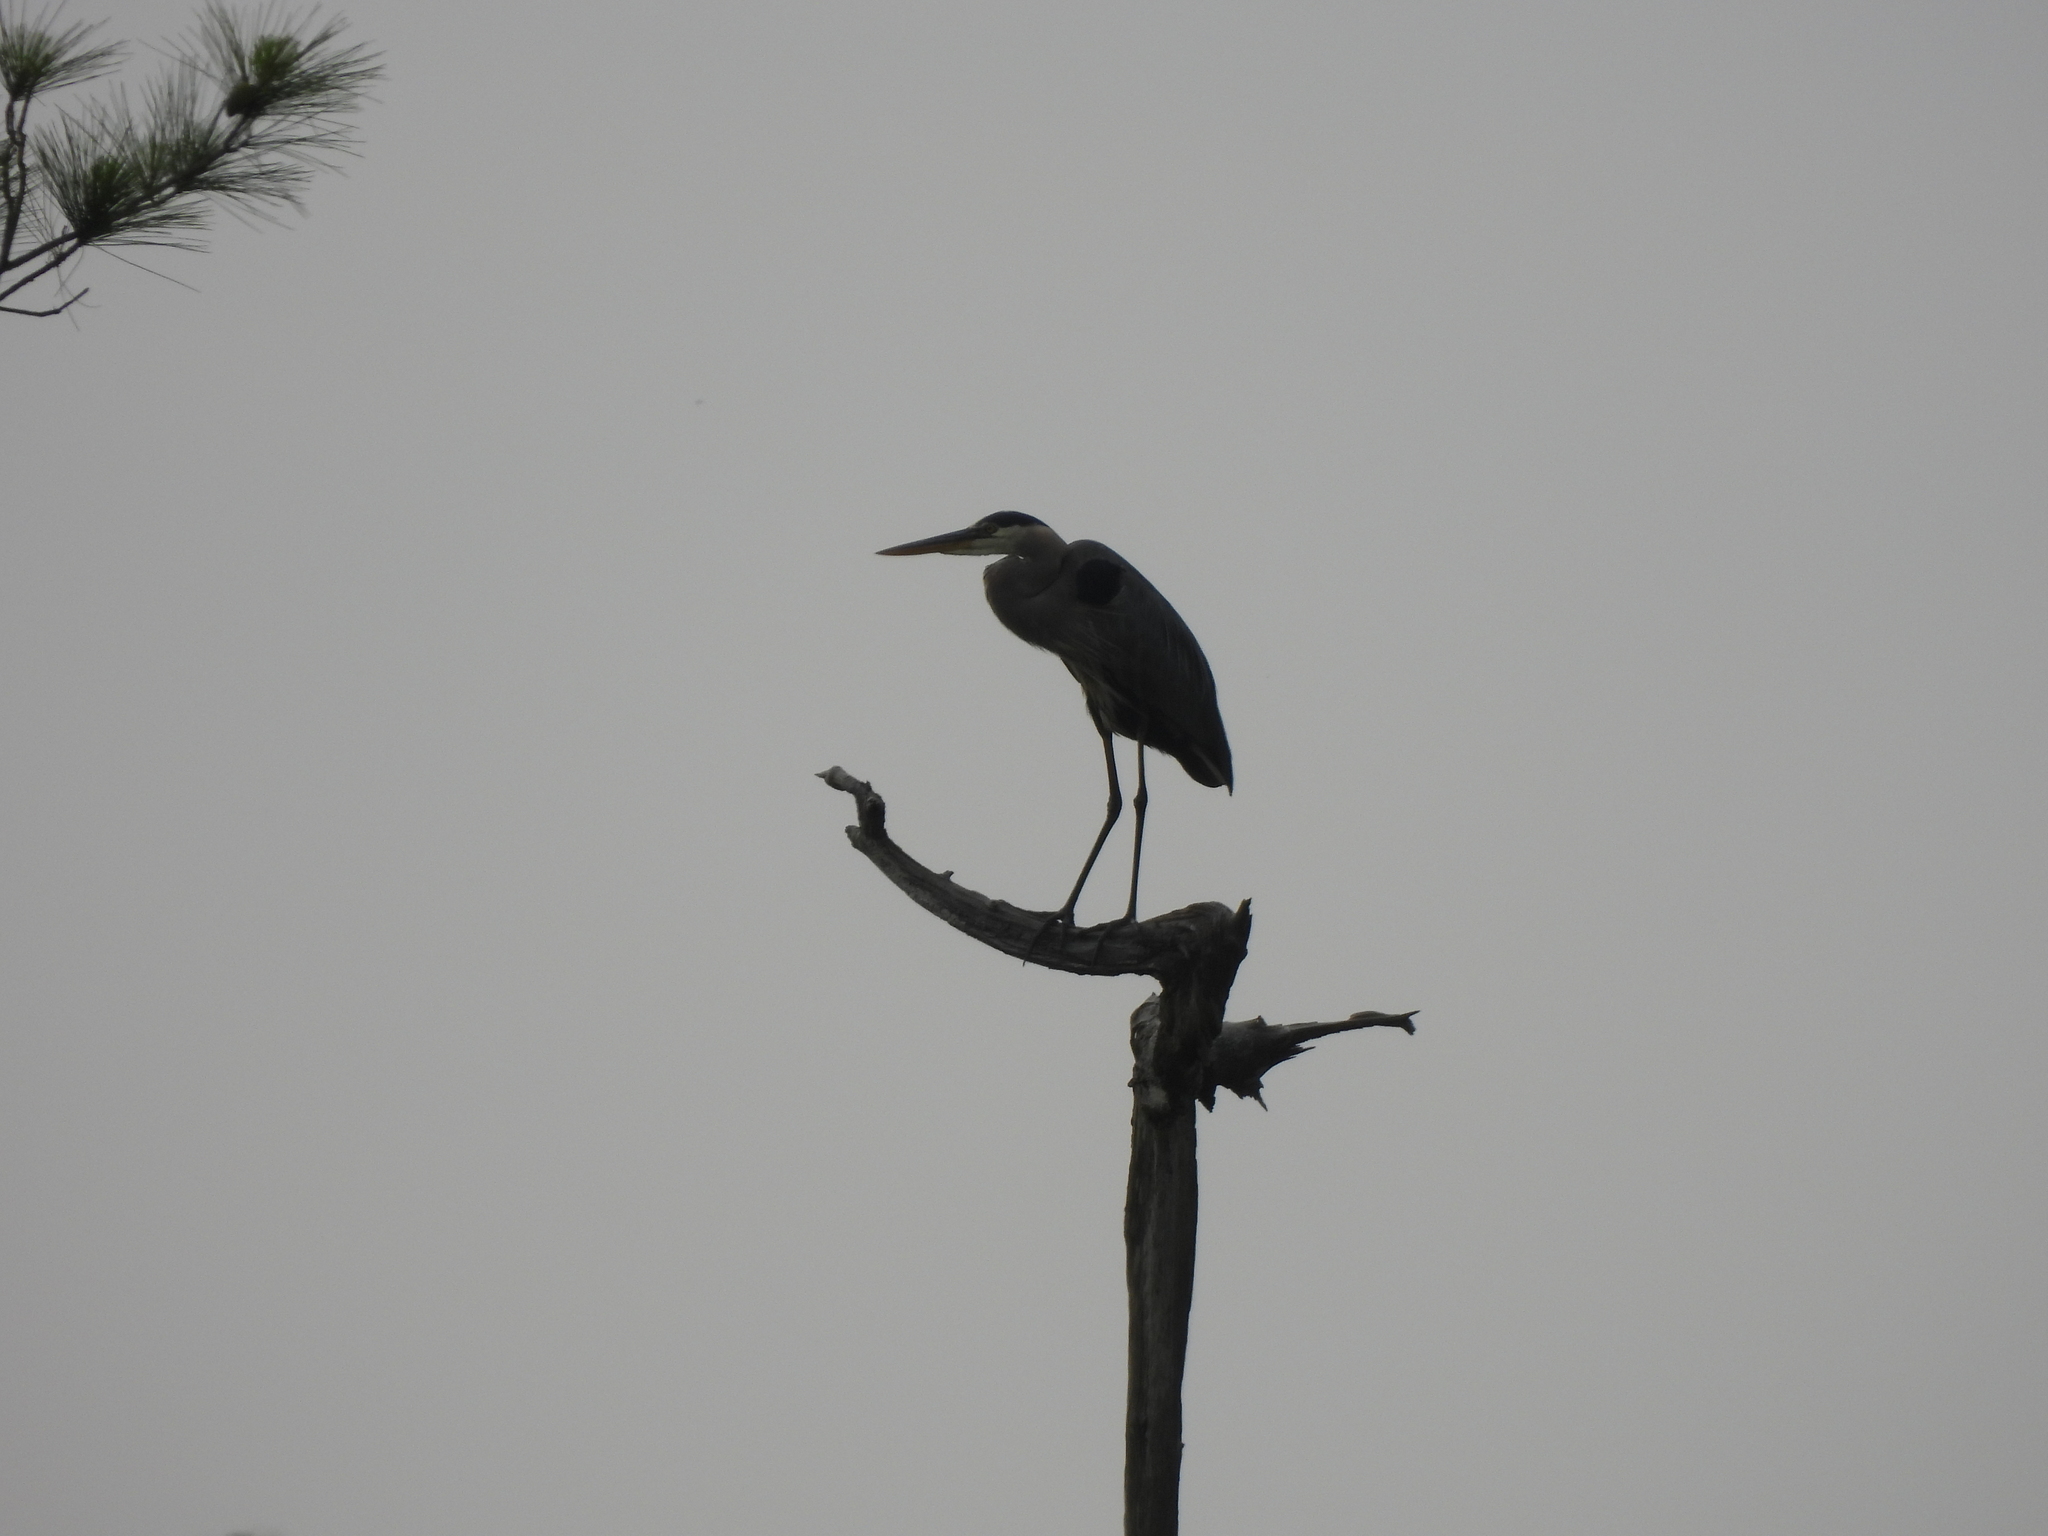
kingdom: Animalia
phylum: Chordata
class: Aves
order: Pelecaniformes
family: Ardeidae
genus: Ardea
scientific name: Ardea herodias
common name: Great blue heron
